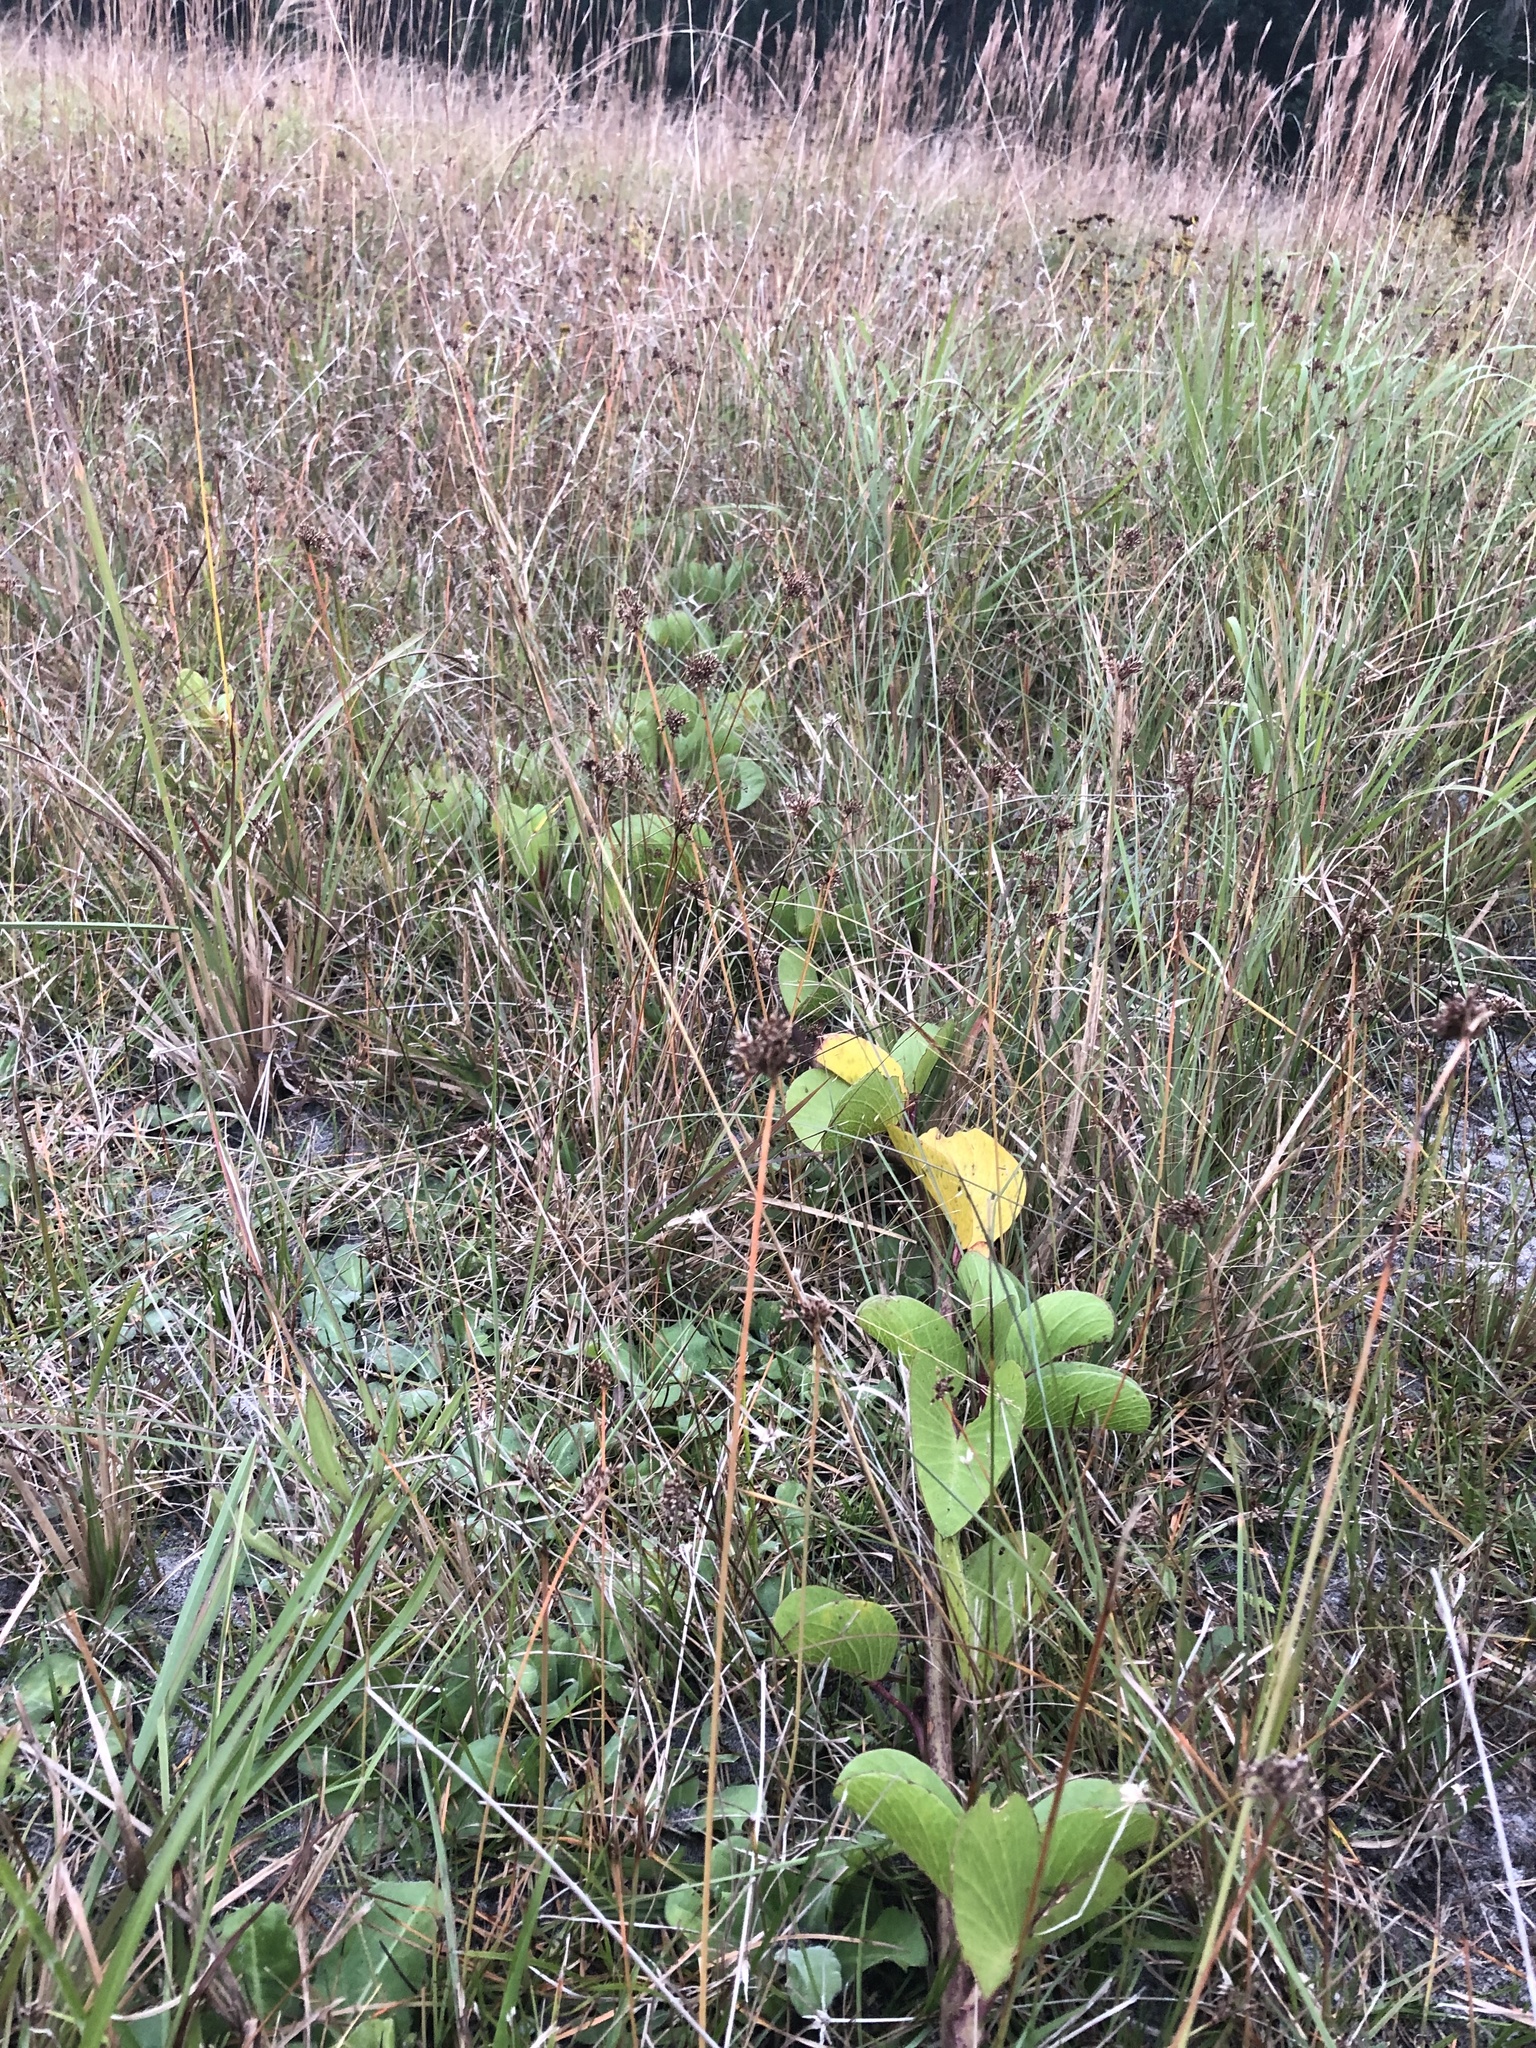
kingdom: Plantae
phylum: Tracheophyta
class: Magnoliopsida
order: Solanales
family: Convolvulaceae
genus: Ipomoea
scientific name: Ipomoea pes-caprae
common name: Beach morning glory
